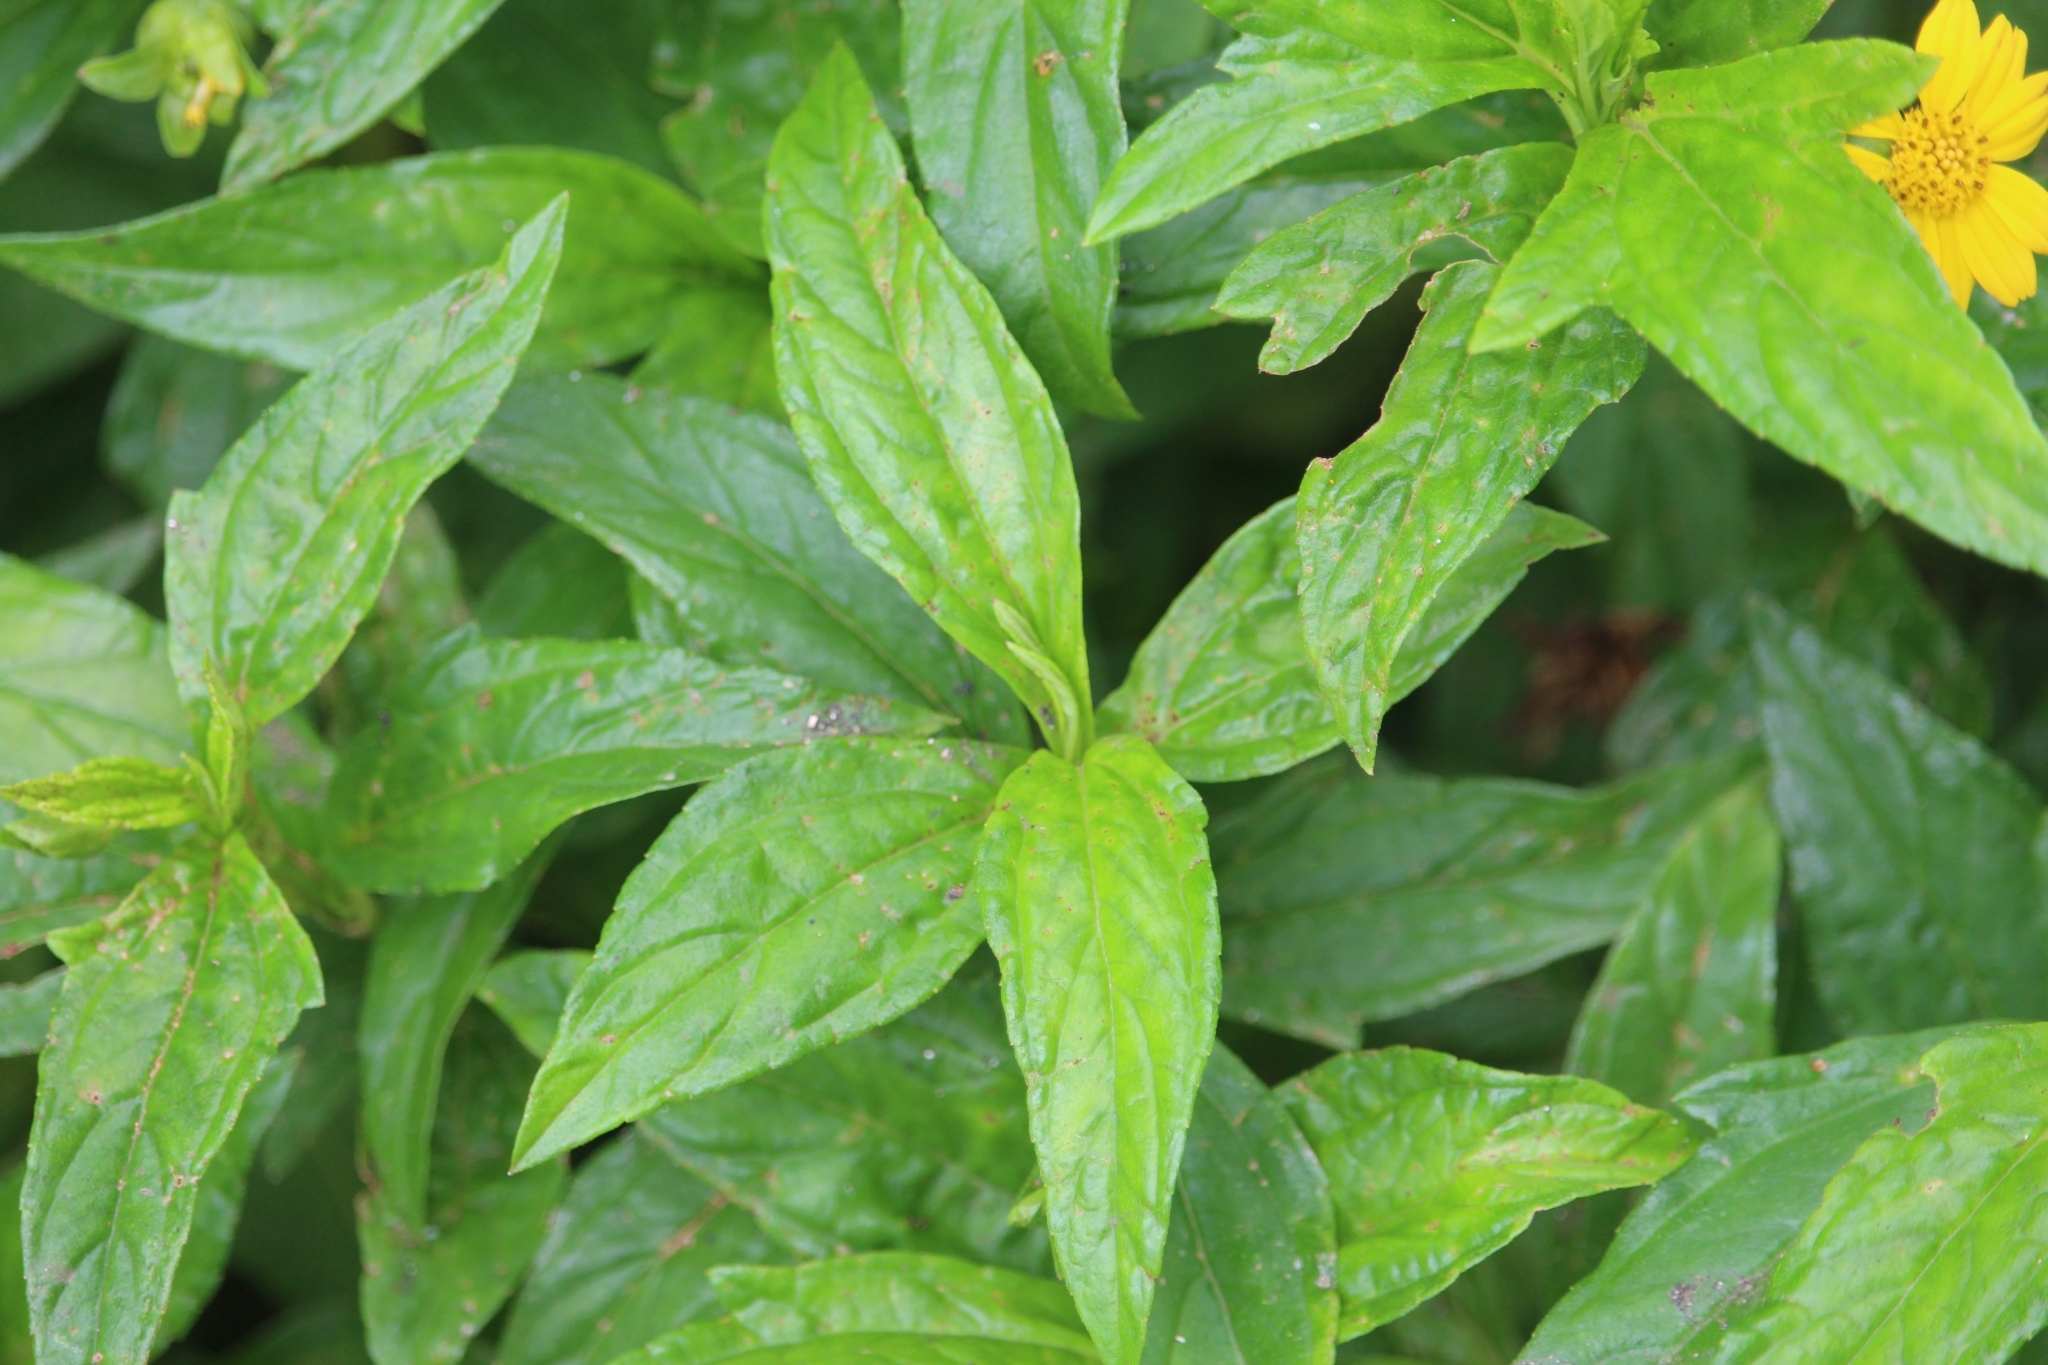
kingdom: Plantae
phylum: Tracheophyta
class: Magnoliopsida
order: Asterales
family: Asteraceae
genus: Sphagneticola
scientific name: Sphagneticola trilobata
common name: Bay biscayne creeping-oxeye
